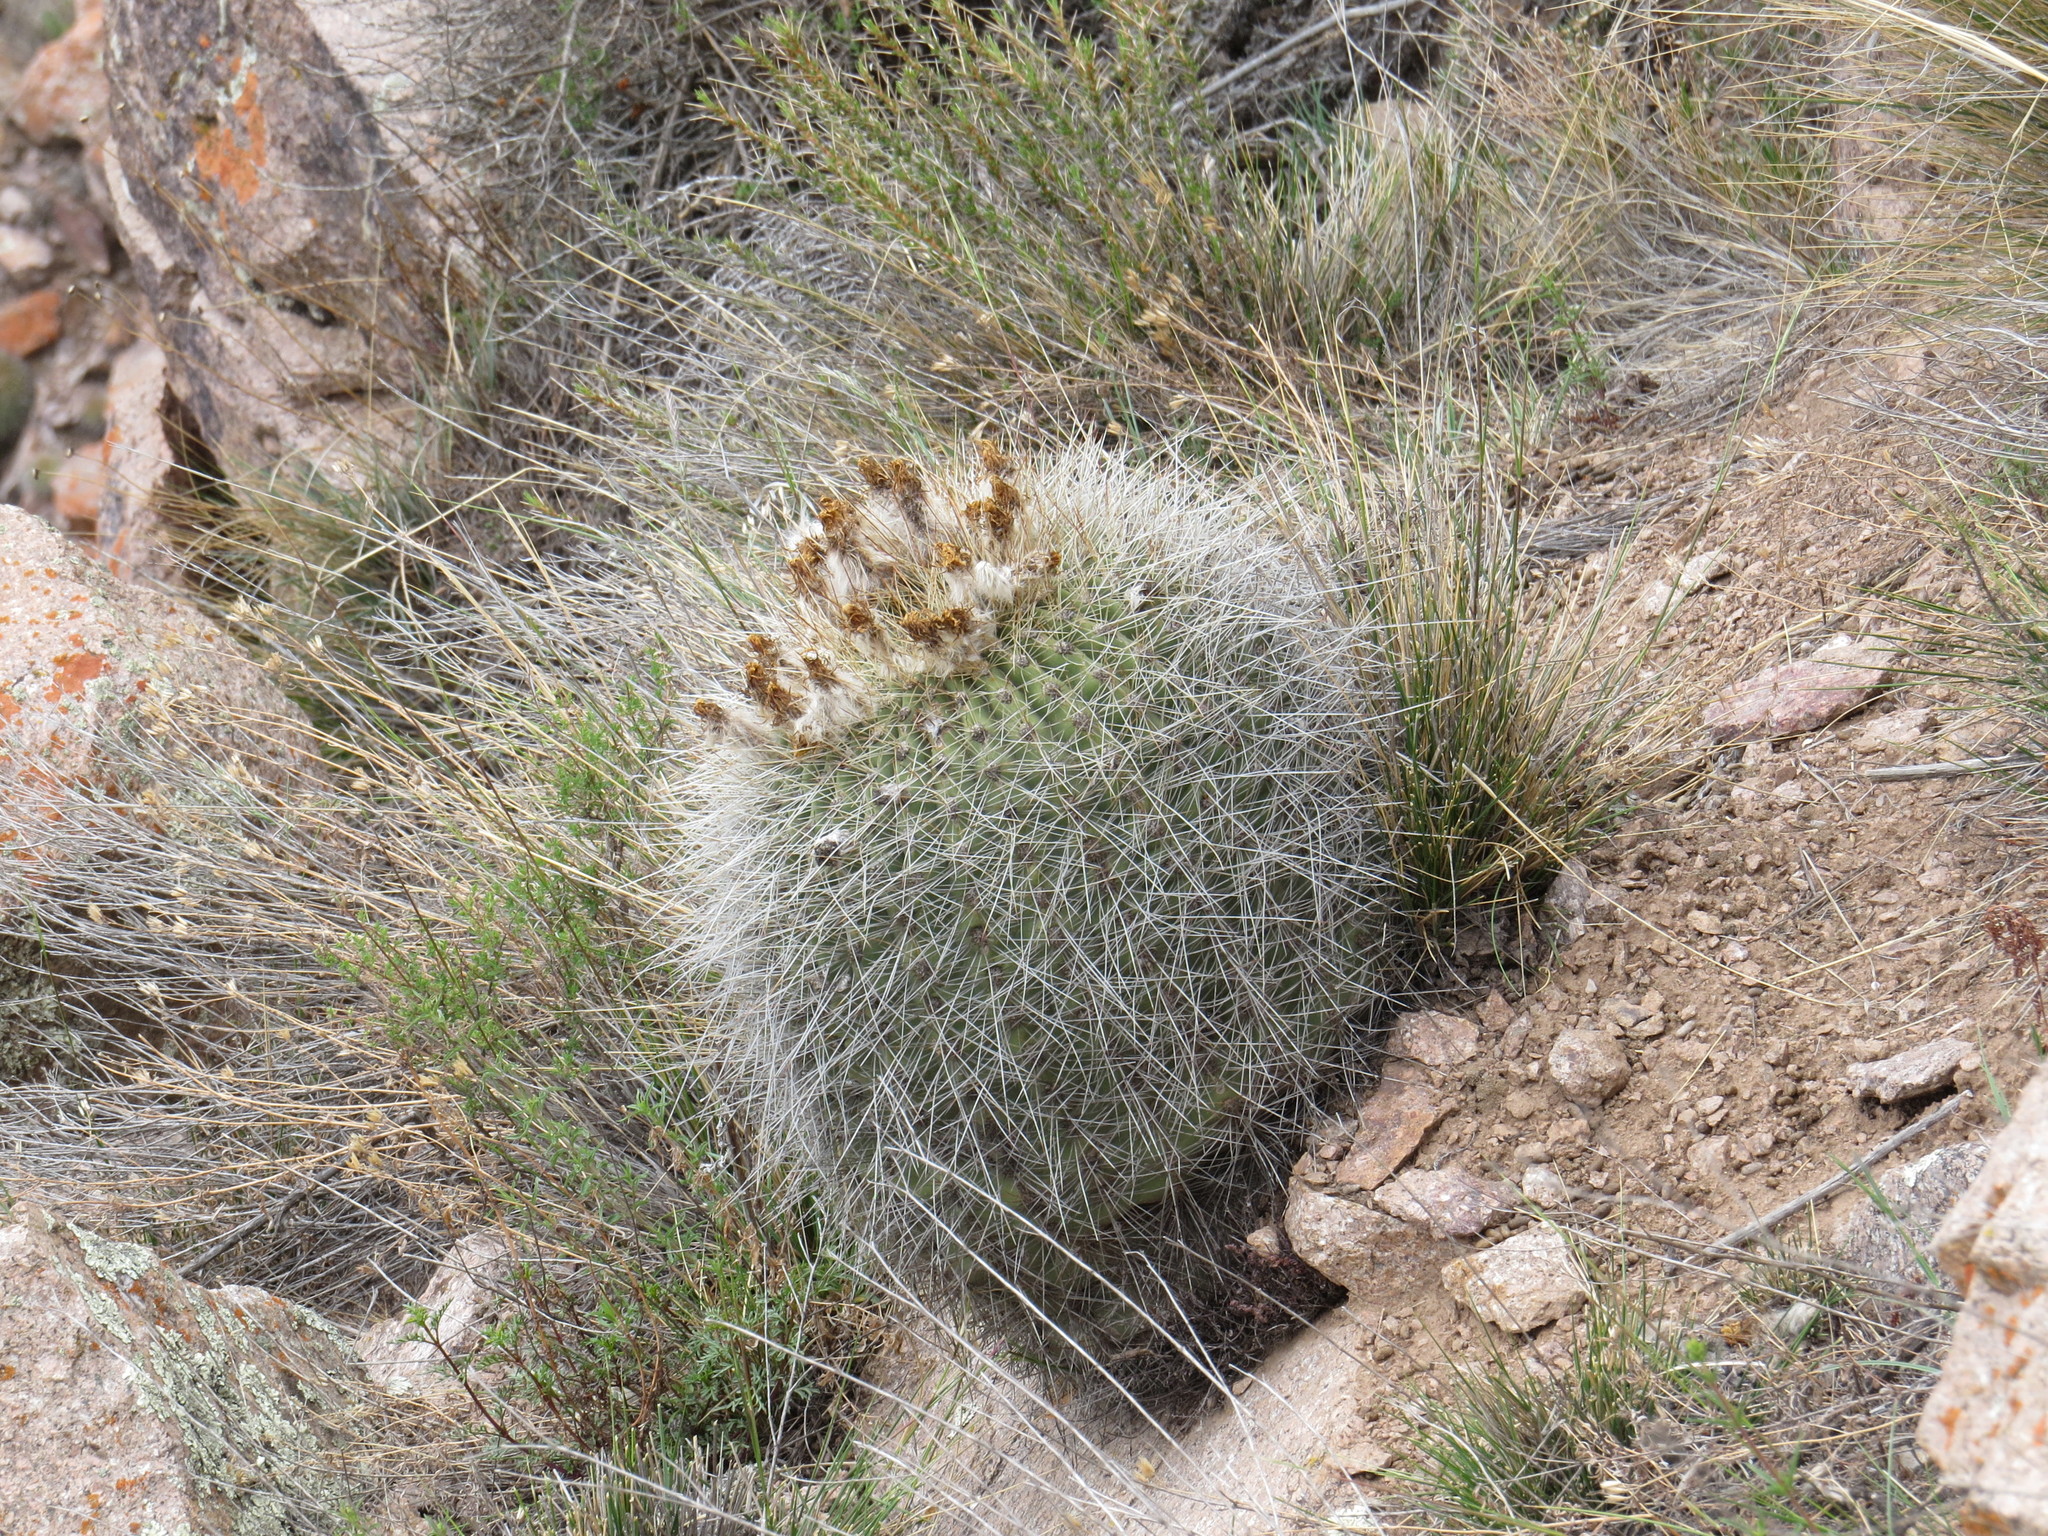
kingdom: Plantae
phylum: Tracheophyta
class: Magnoliopsida
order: Caryophyllales
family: Cactaceae
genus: Soehrensia
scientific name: Soehrensia formosa
